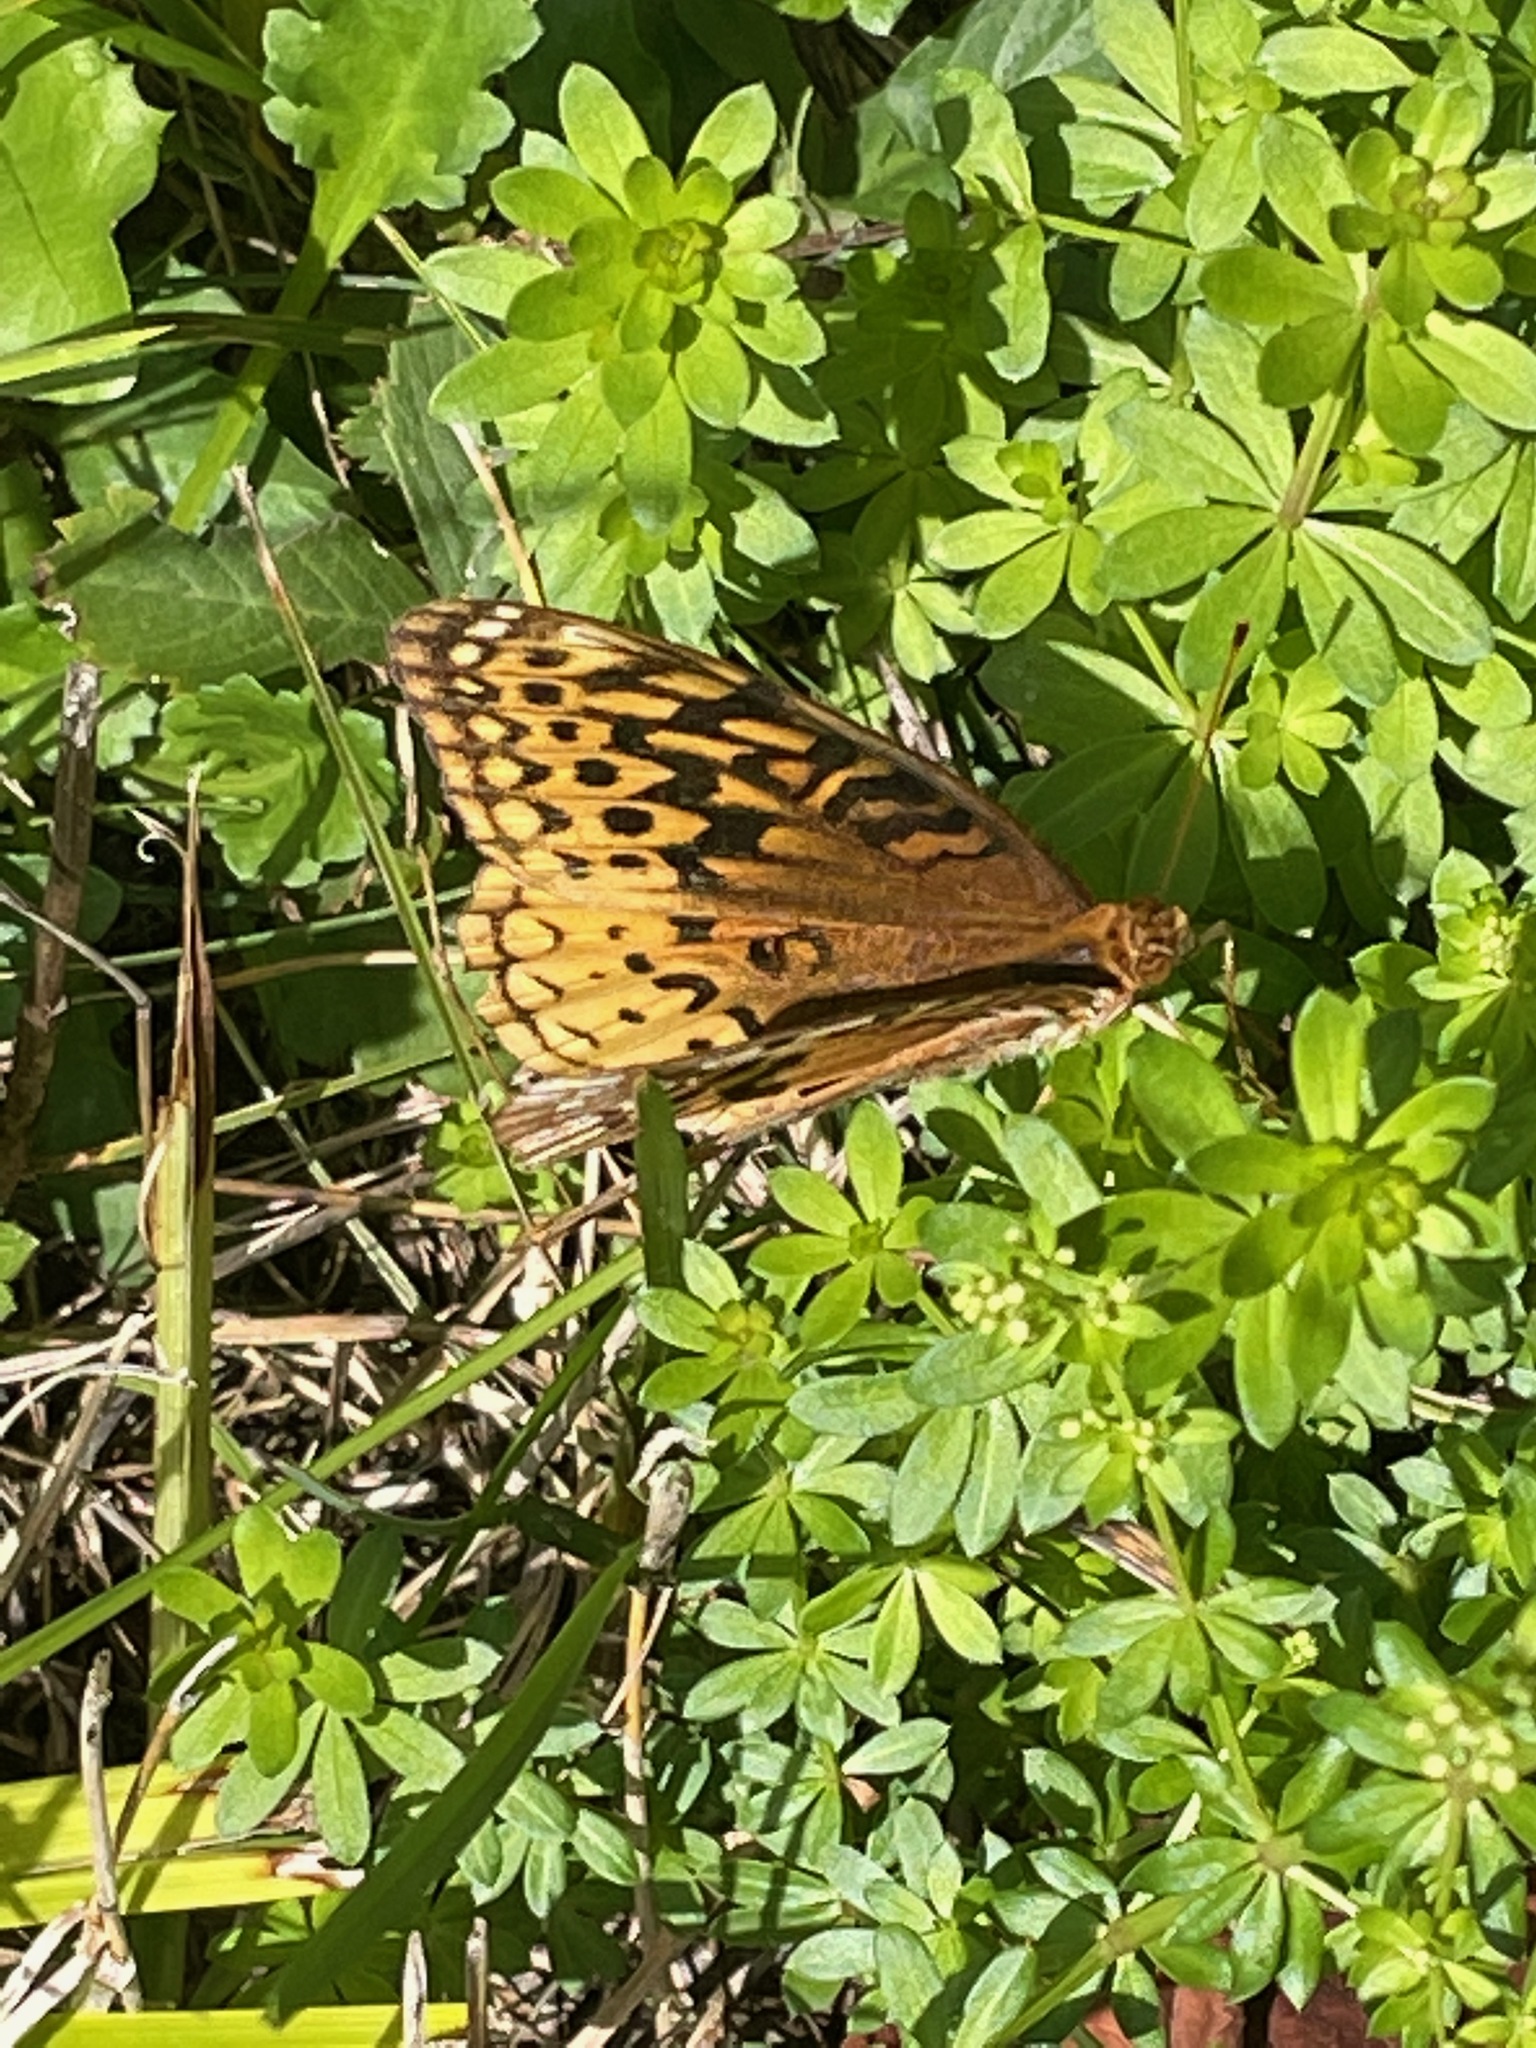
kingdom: Animalia
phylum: Arthropoda
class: Insecta
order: Lepidoptera
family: Nymphalidae
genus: Speyeria
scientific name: Speyeria cybele
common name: Great spangled fritillary
